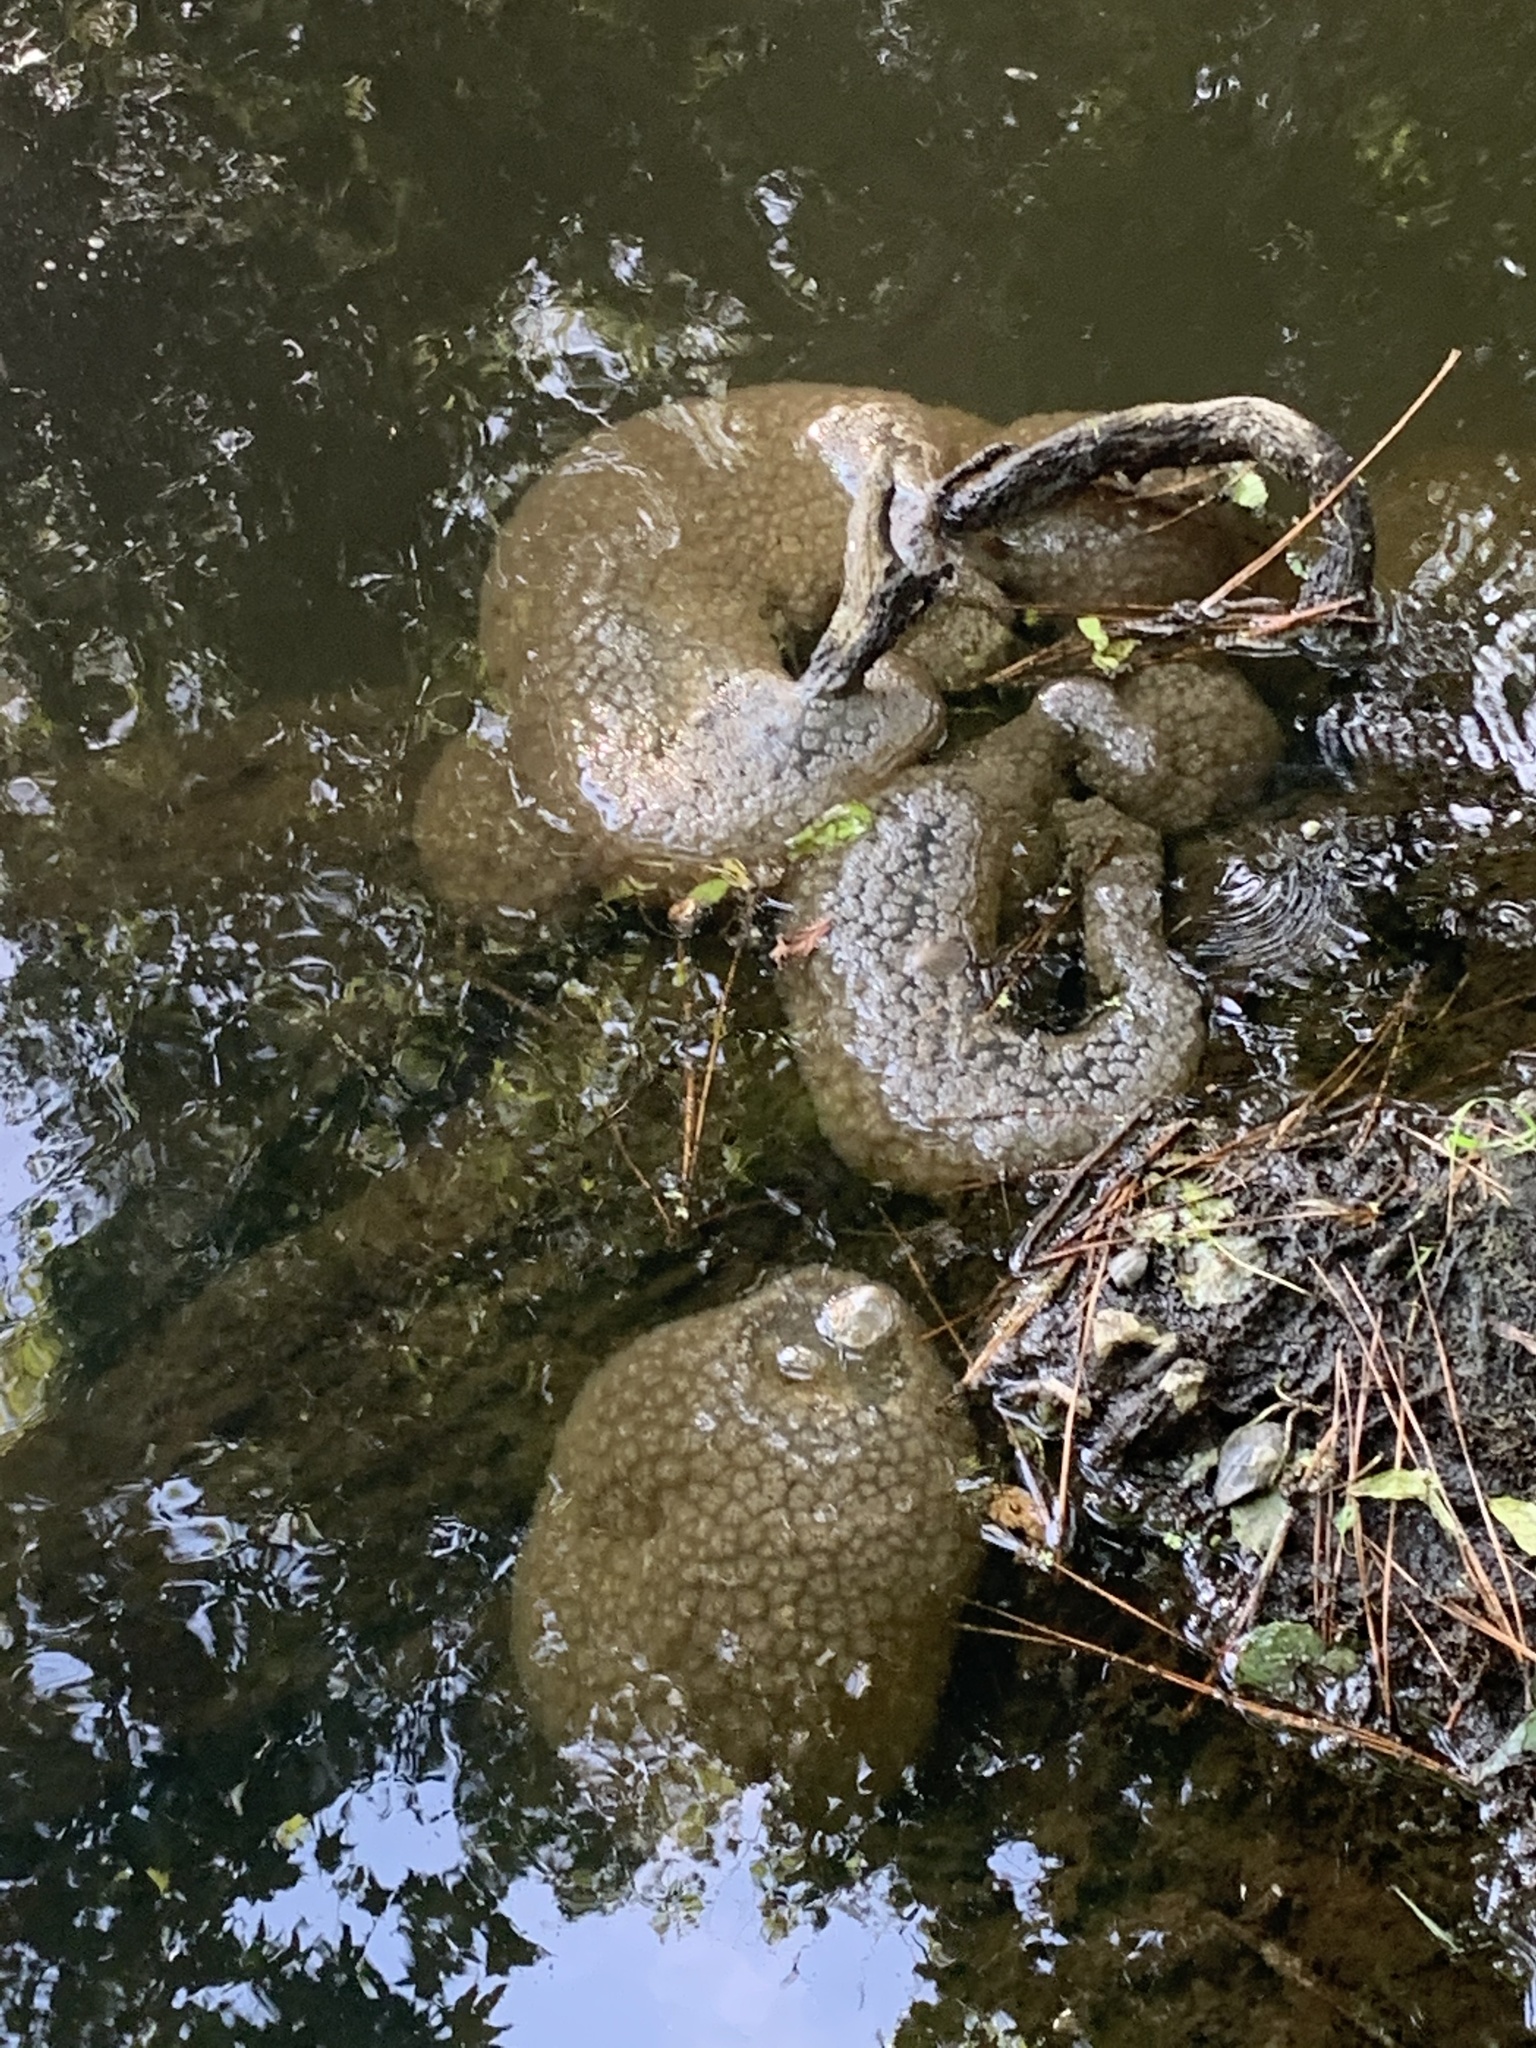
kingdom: Animalia
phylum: Bryozoa
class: Phylactolaemata
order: Plumatellida
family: Pectinatellidae
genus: Pectinatella
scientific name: Pectinatella magnifica
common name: Magnificent bryozoan
